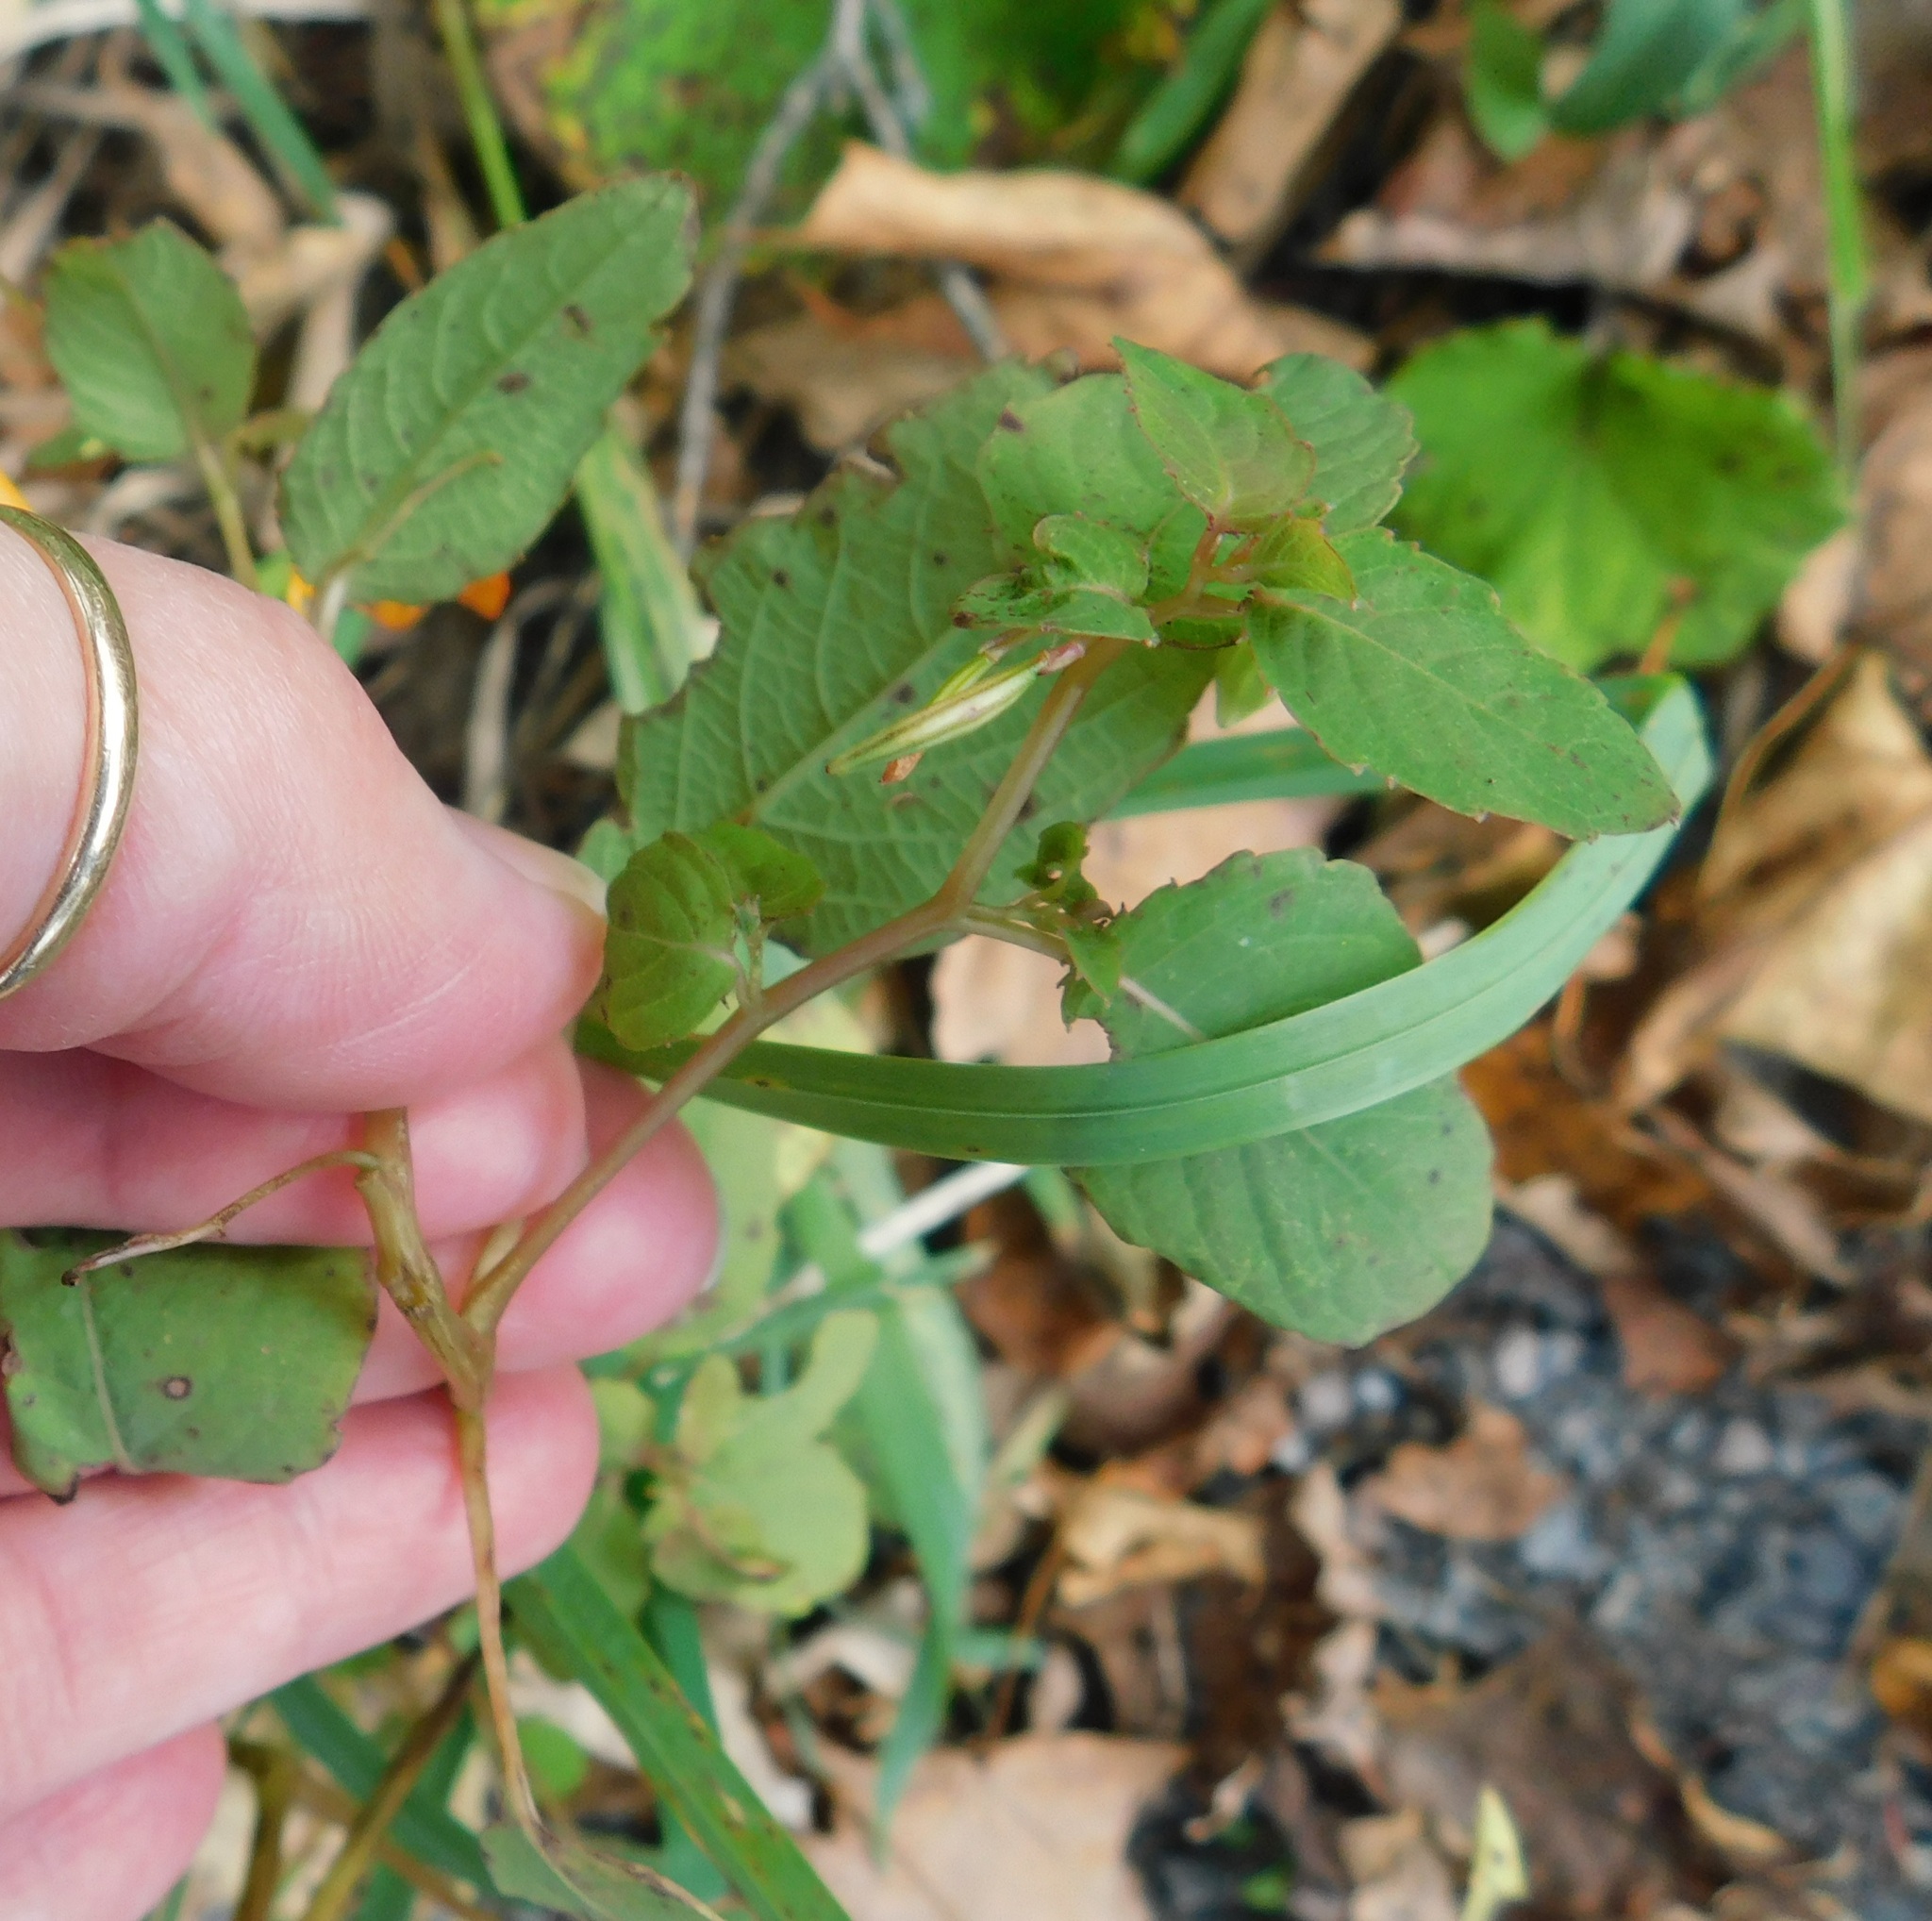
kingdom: Plantae
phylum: Tracheophyta
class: Magnoliopsida
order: Ericales
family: Balsaminaceae
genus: Impatiens
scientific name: Impatiens capensis
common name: Orange balsam
